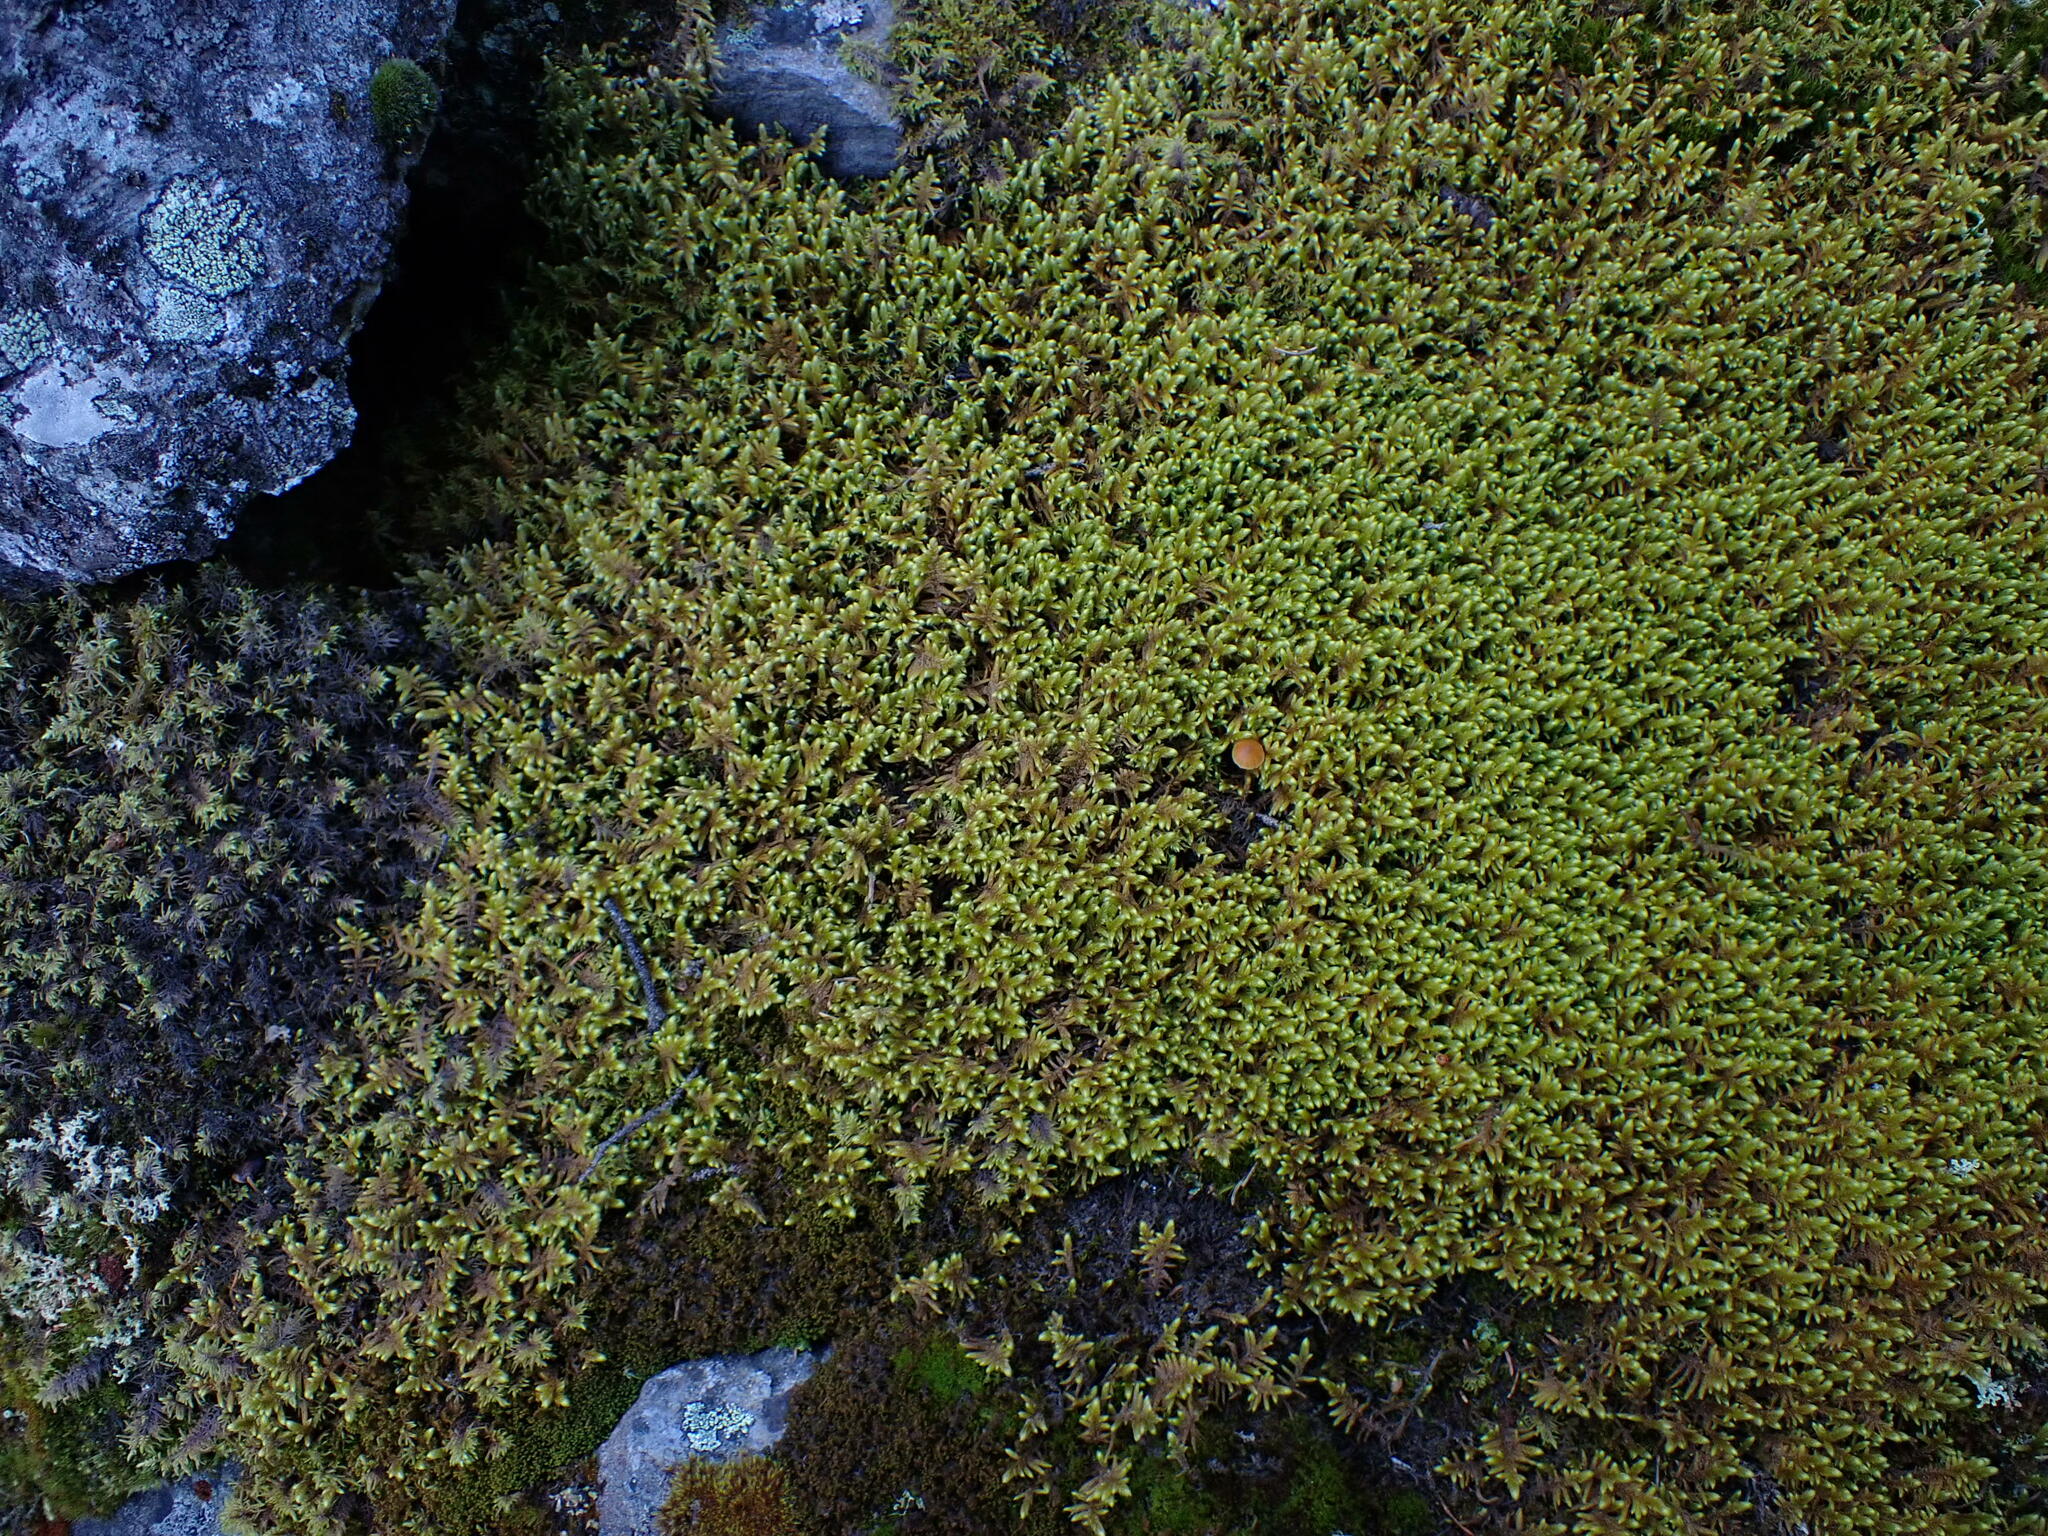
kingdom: Plantae
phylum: Bryophyta
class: Bryopsida
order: Hypnales
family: Rhytidiaceae
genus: Rhytidium
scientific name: Rhytidium rugosum
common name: Wrinkle-leaved moss
